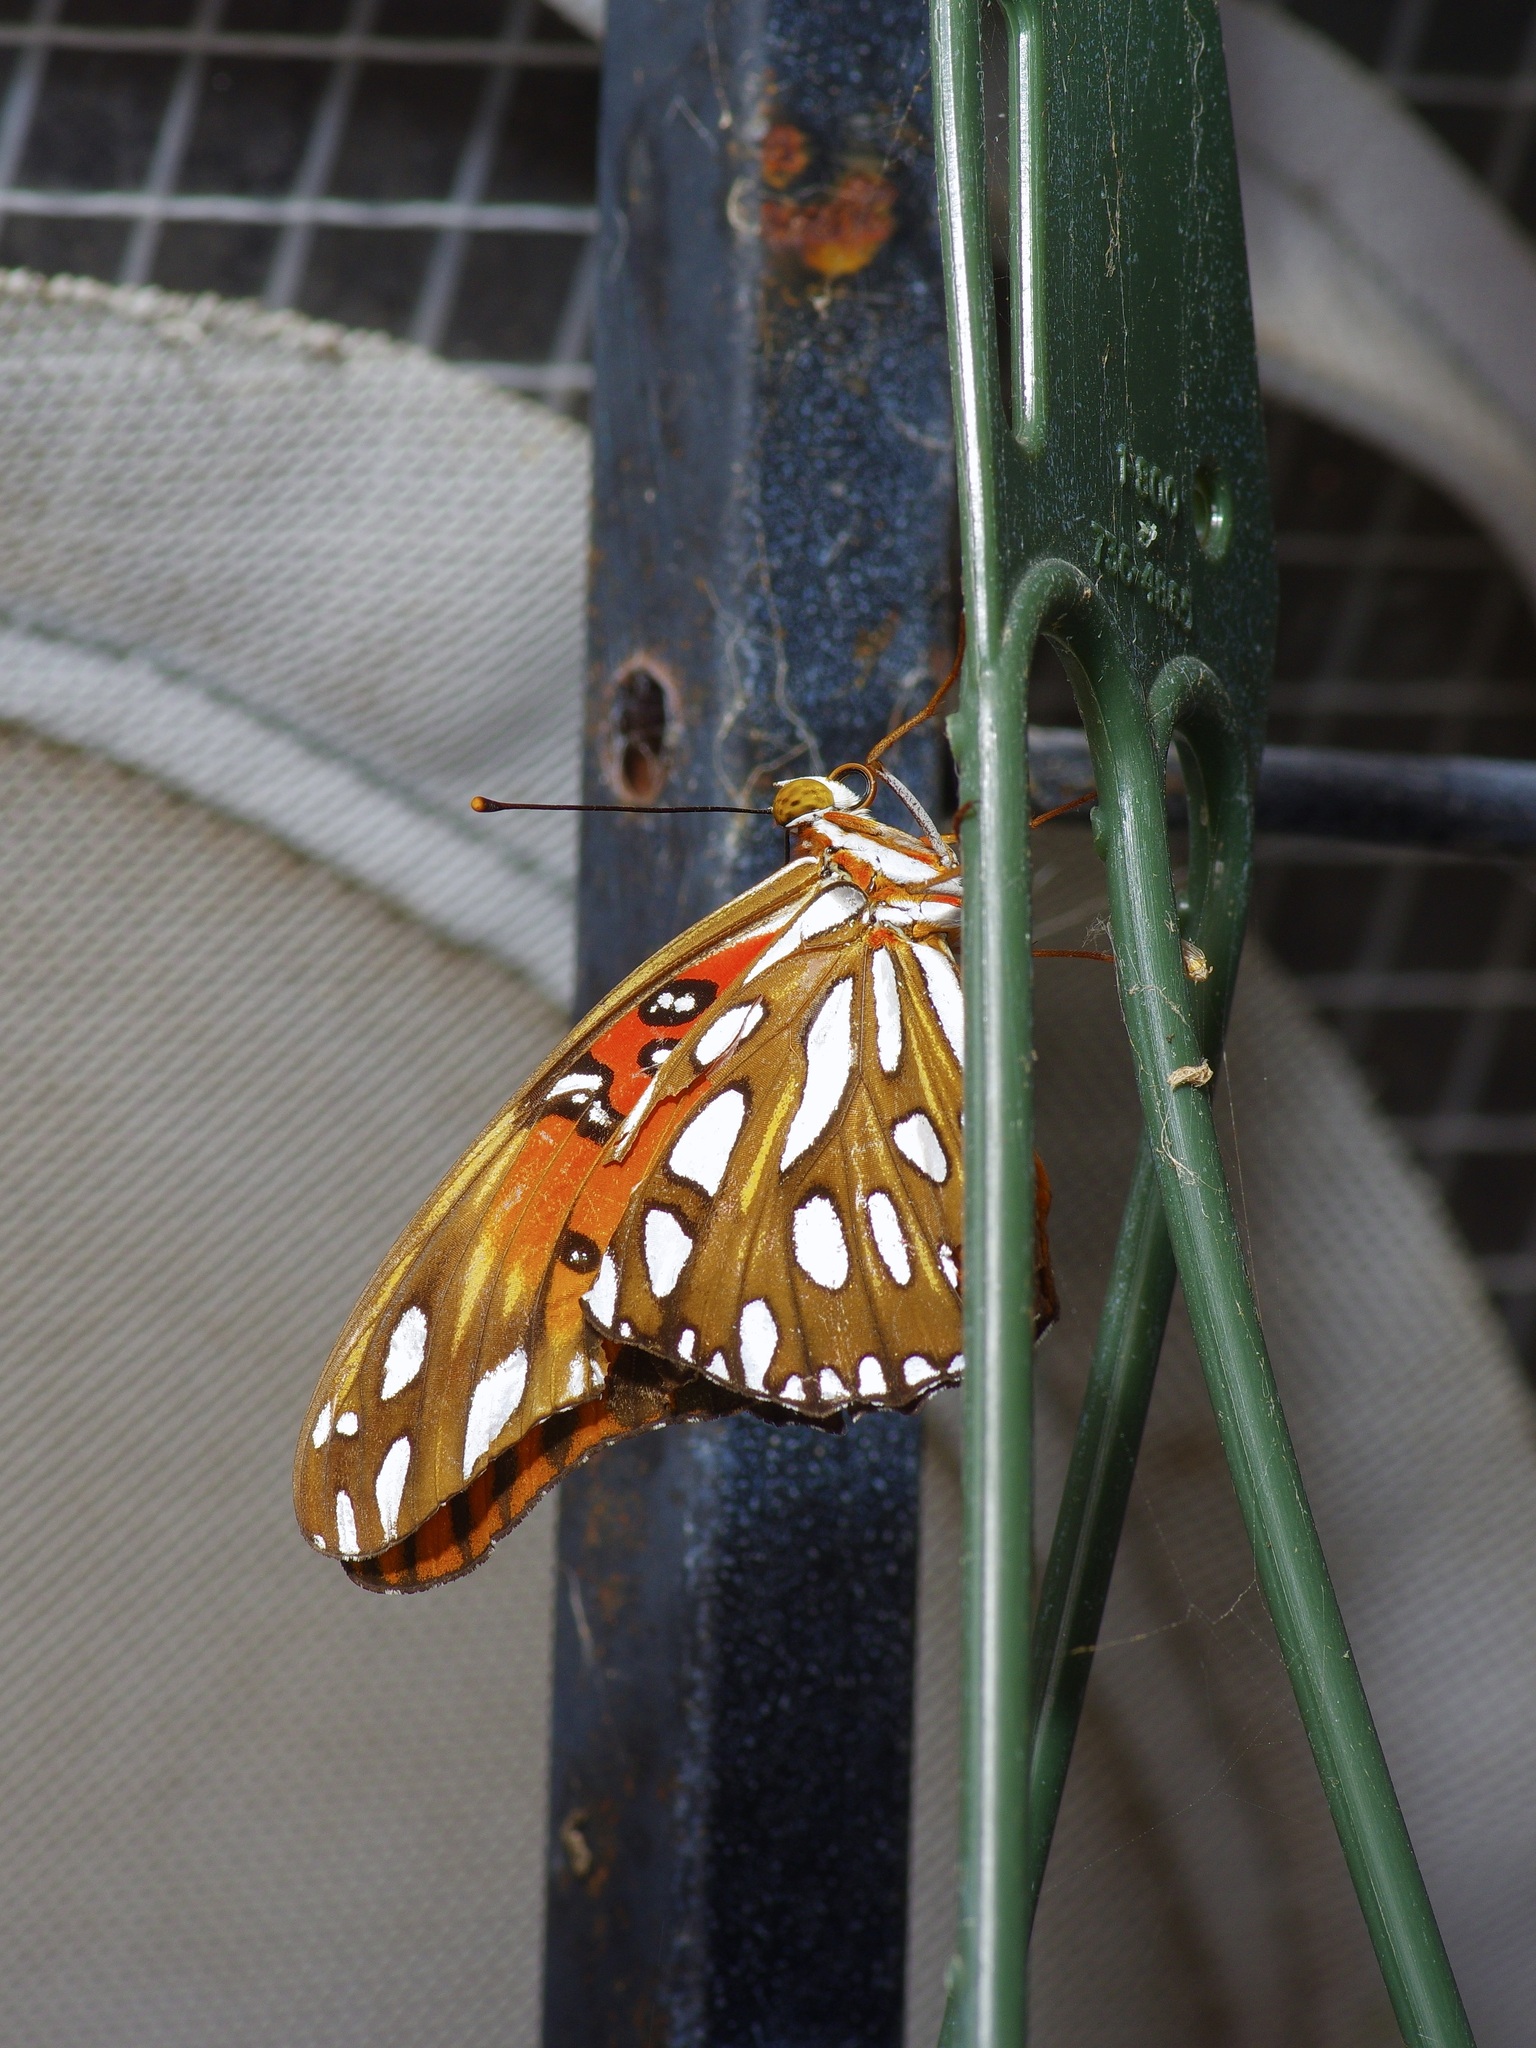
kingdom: Animalia
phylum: Arthropoda
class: Insecta
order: Lepidoptera
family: Nymphalidae
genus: Dione
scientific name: Dione vanillae
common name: Gulf fritillary
